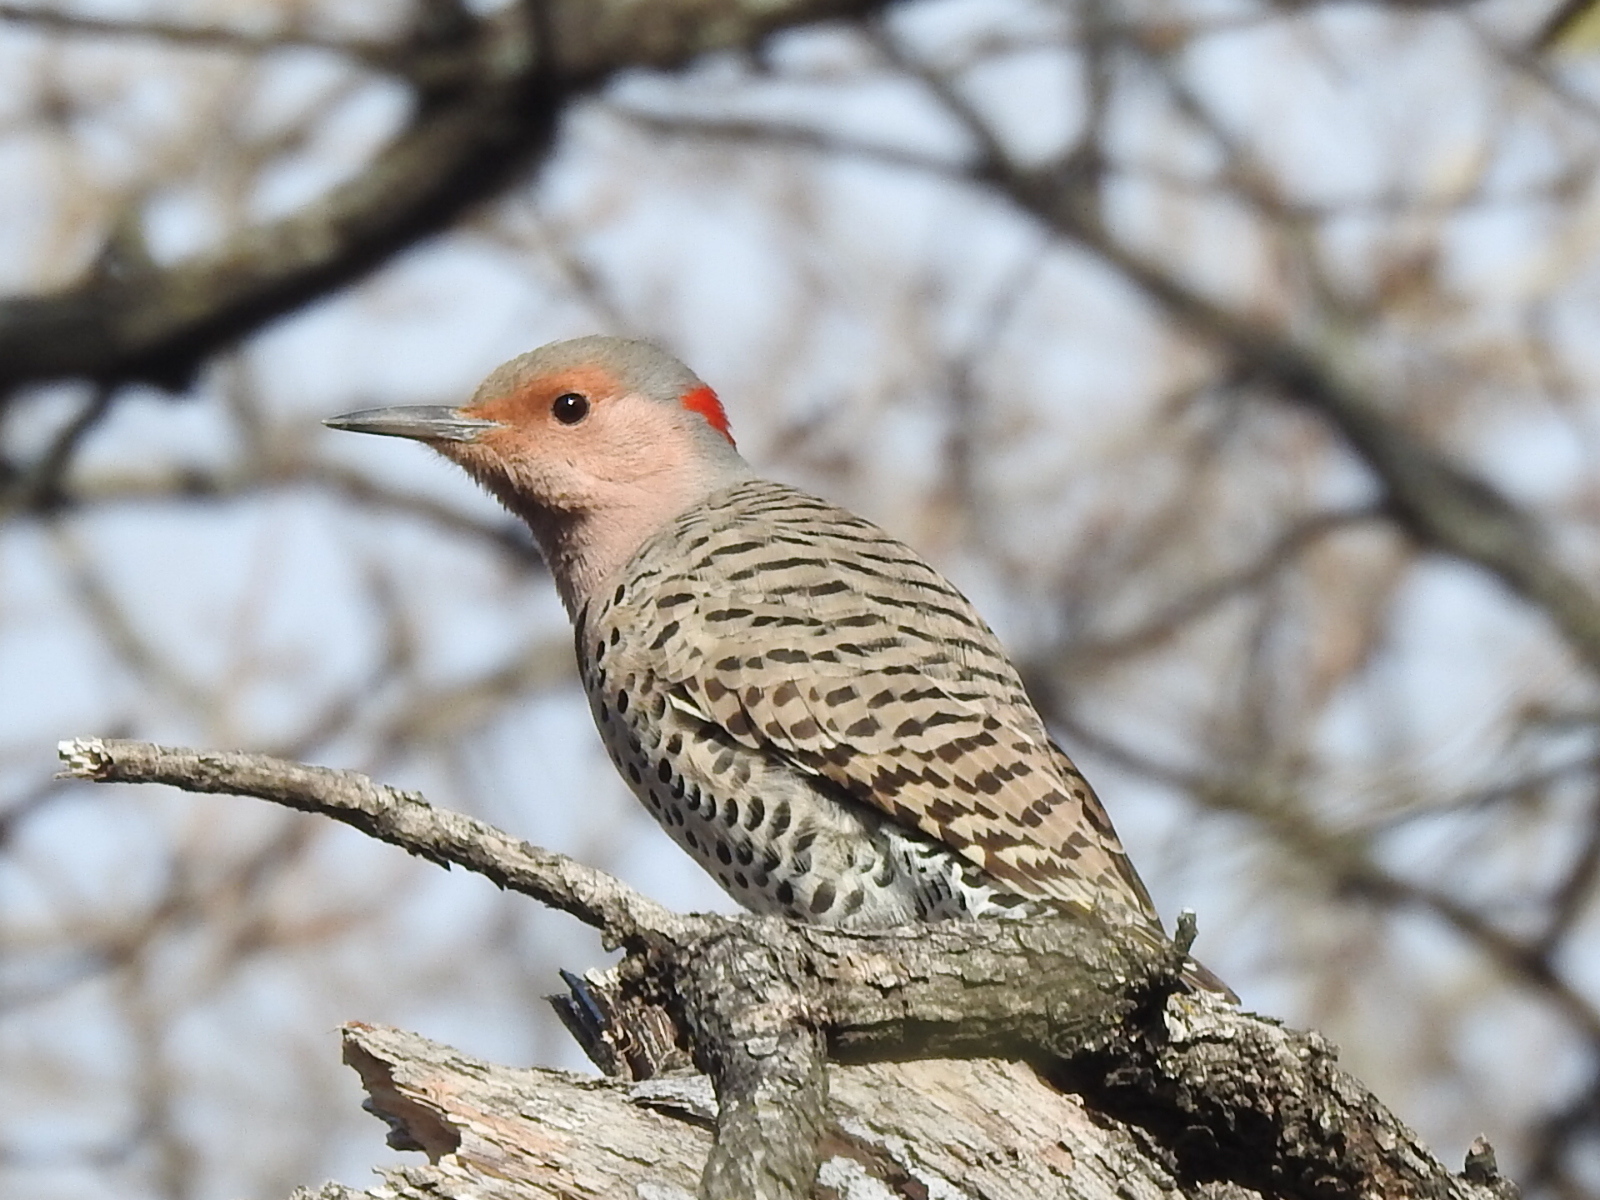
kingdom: Animalia
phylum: Chordata
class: Aves
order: Piciformes
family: Picidae
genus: Colaptes
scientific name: Colaptes auratus
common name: Northern flicker
